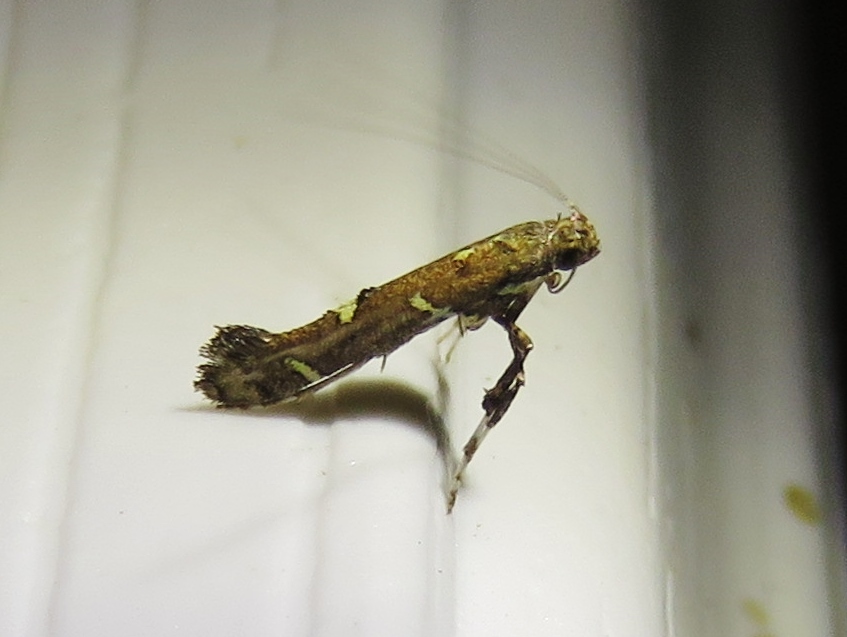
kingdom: Animalia
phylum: Arthropoda
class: Insecta
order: Lepidoptera
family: Gracillariidae
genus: Caloptilia
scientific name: Caloptilia triadicae
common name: Tallow leaf roller
